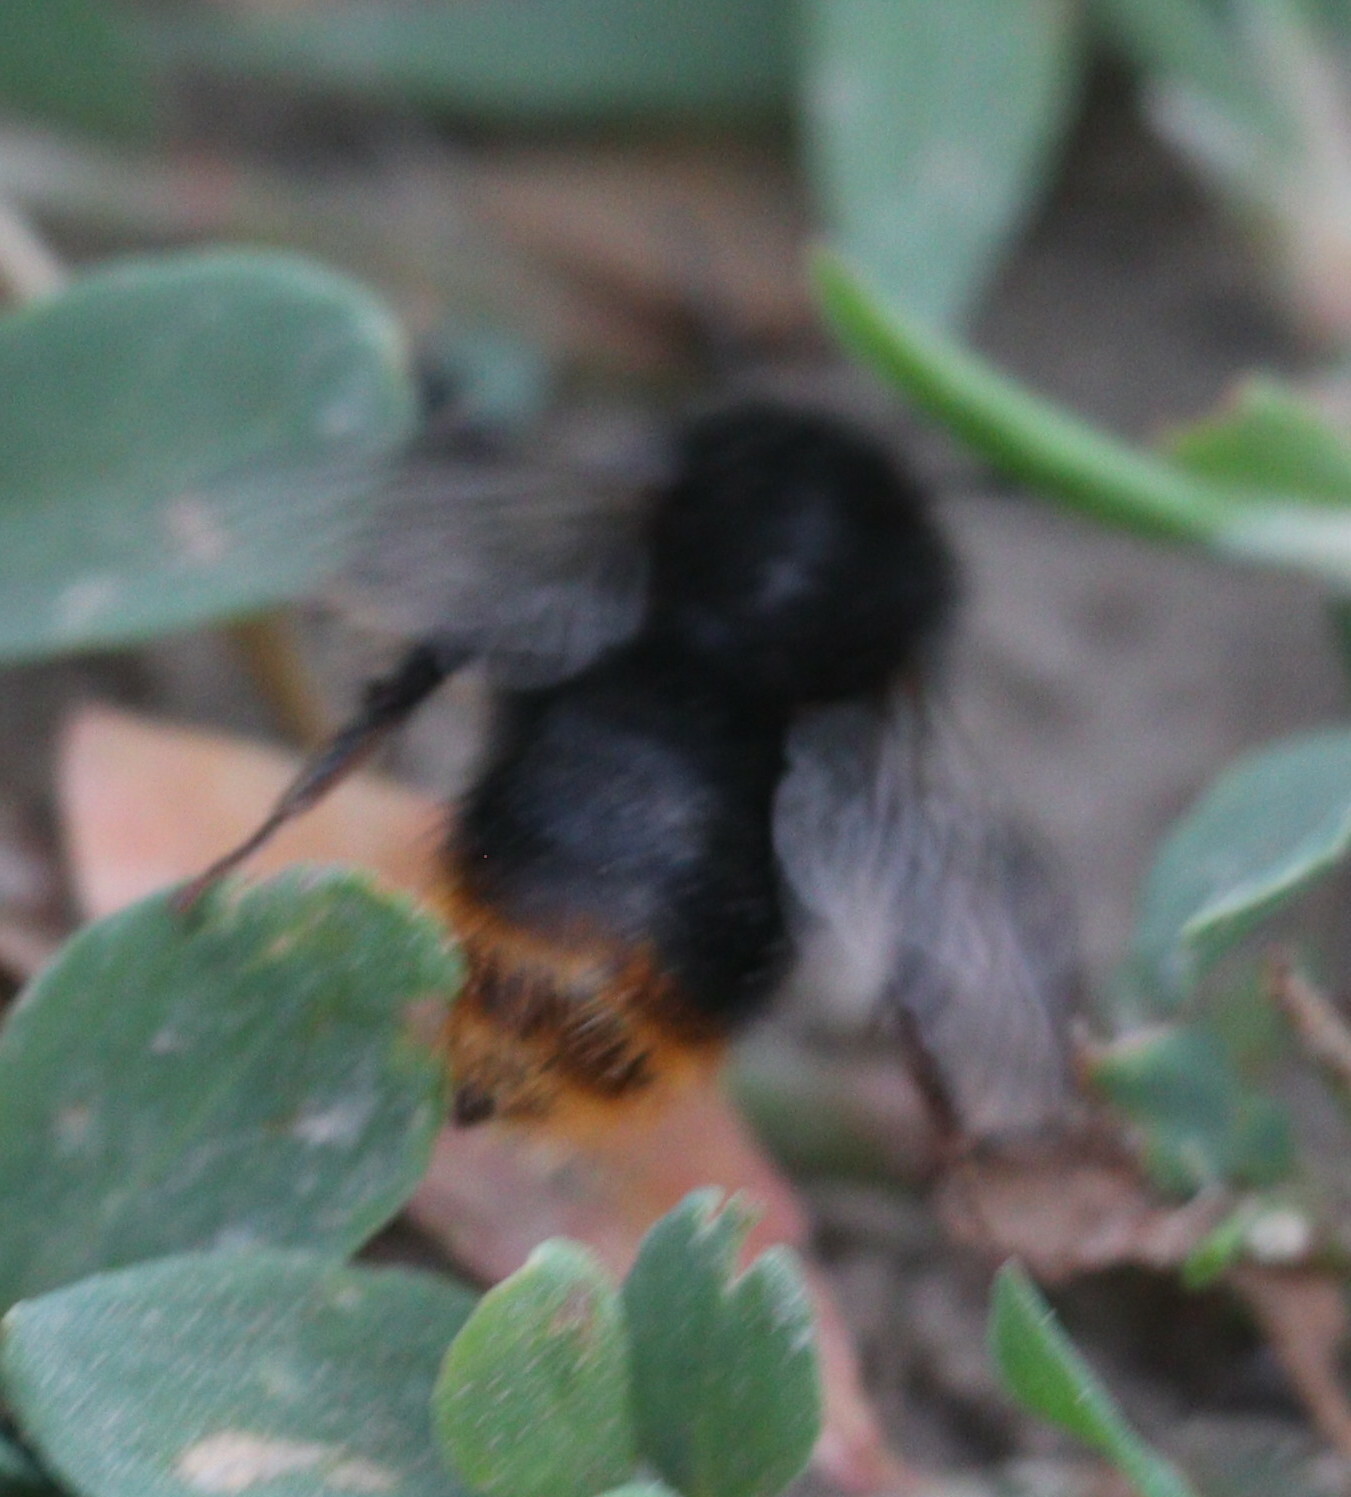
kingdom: Animalia
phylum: Arthropoda
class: Insecta
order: Hymenoptera
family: Apidae
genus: Bombus
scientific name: Bombus ruderarius
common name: Red-shanked carder-bee
